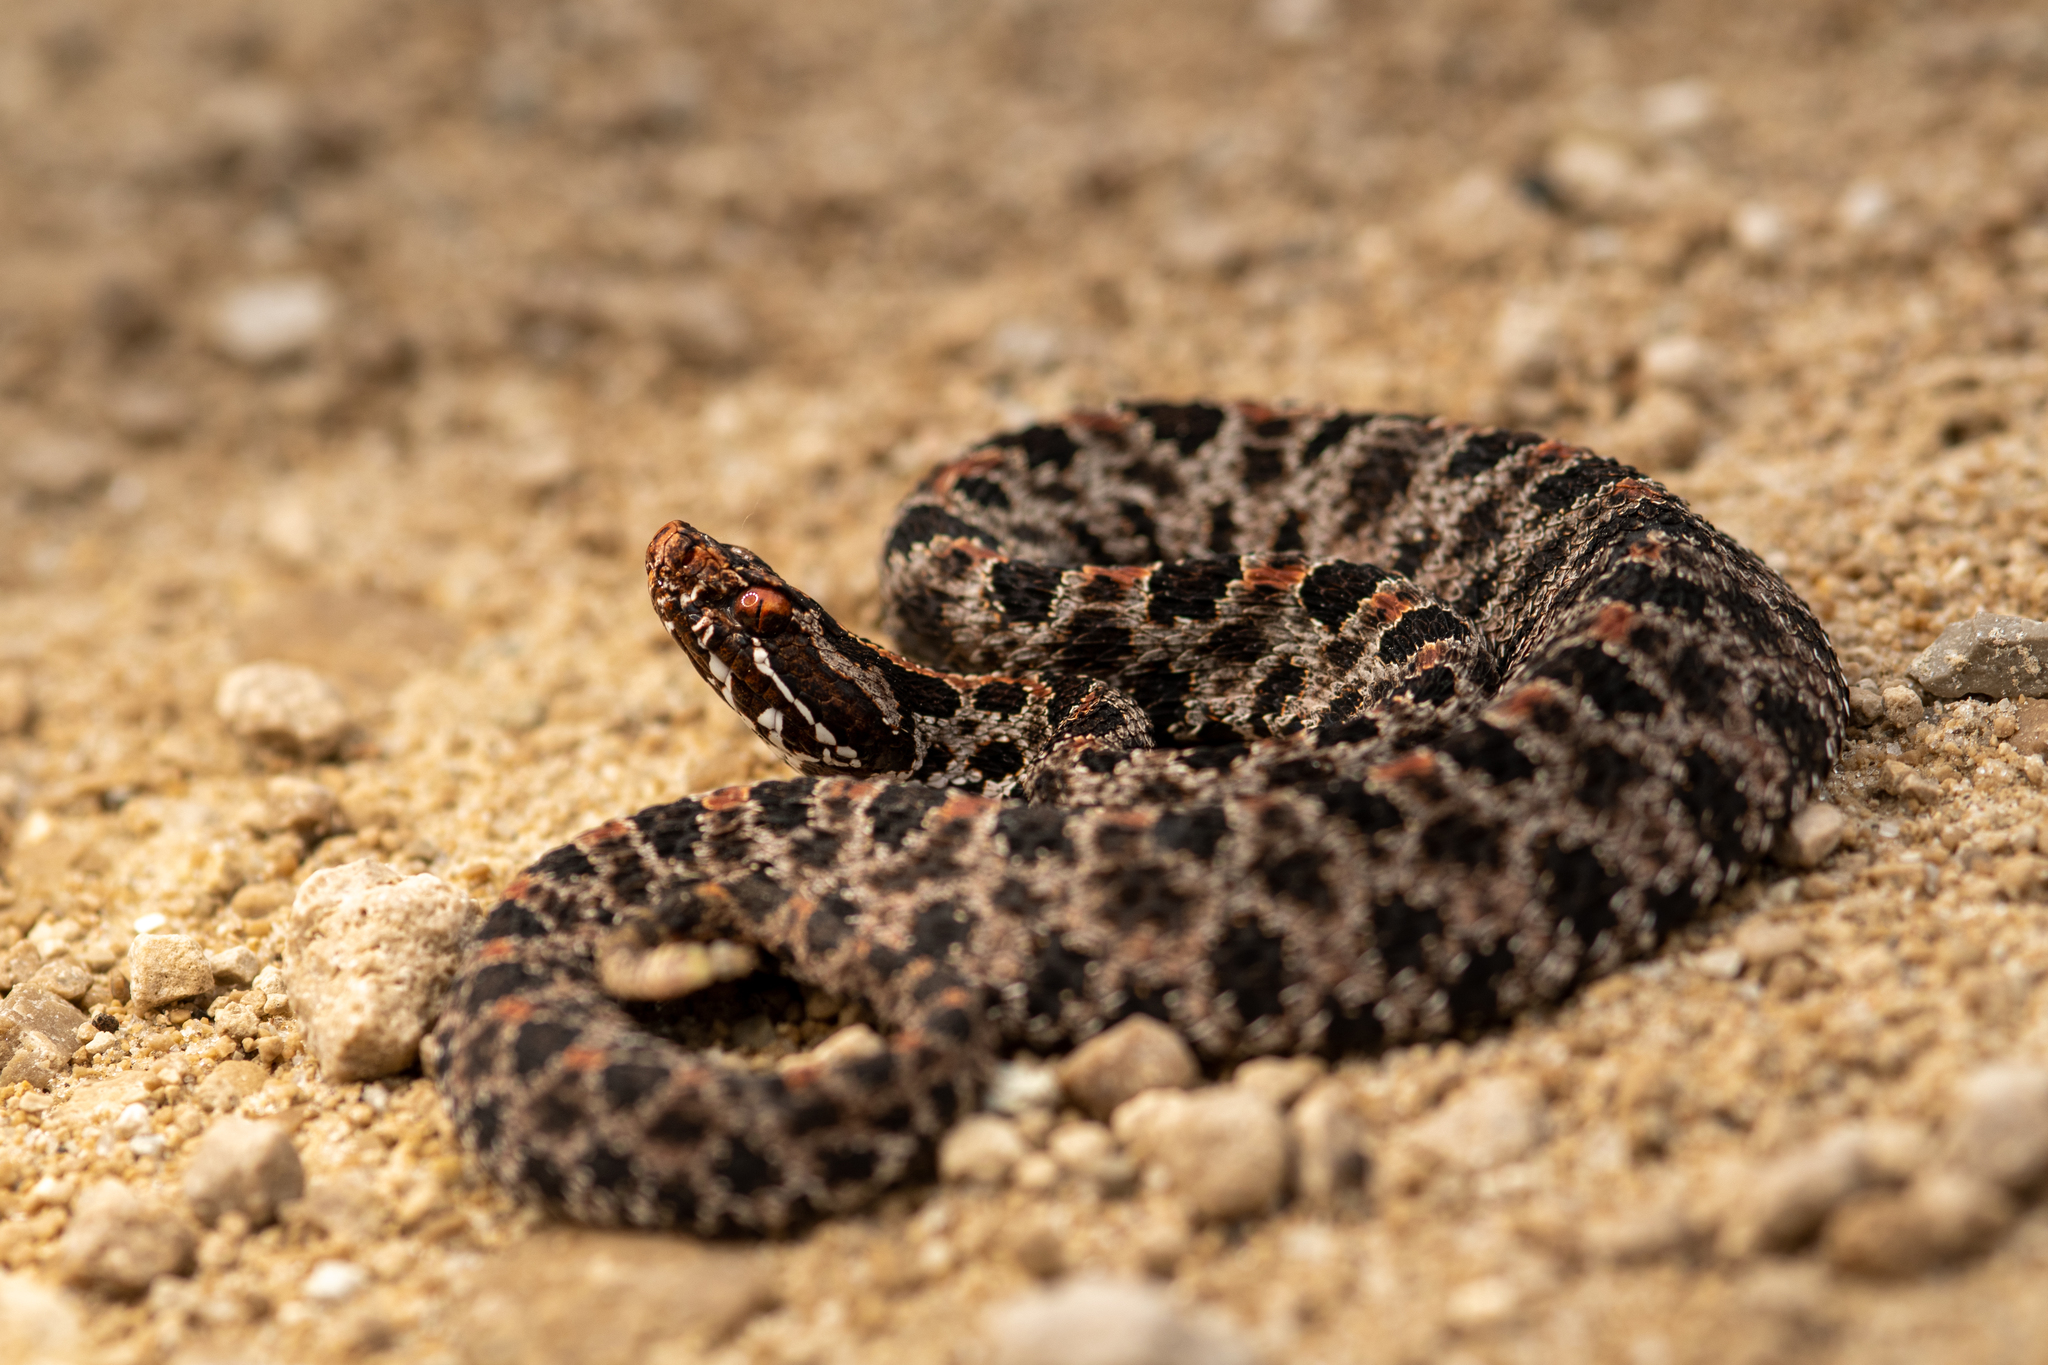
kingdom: Animalia
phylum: Chordata
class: Squamata
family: Viperidae
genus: Sistrurus
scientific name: Sistrurus miliarius
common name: Pygmy rattlesnake
